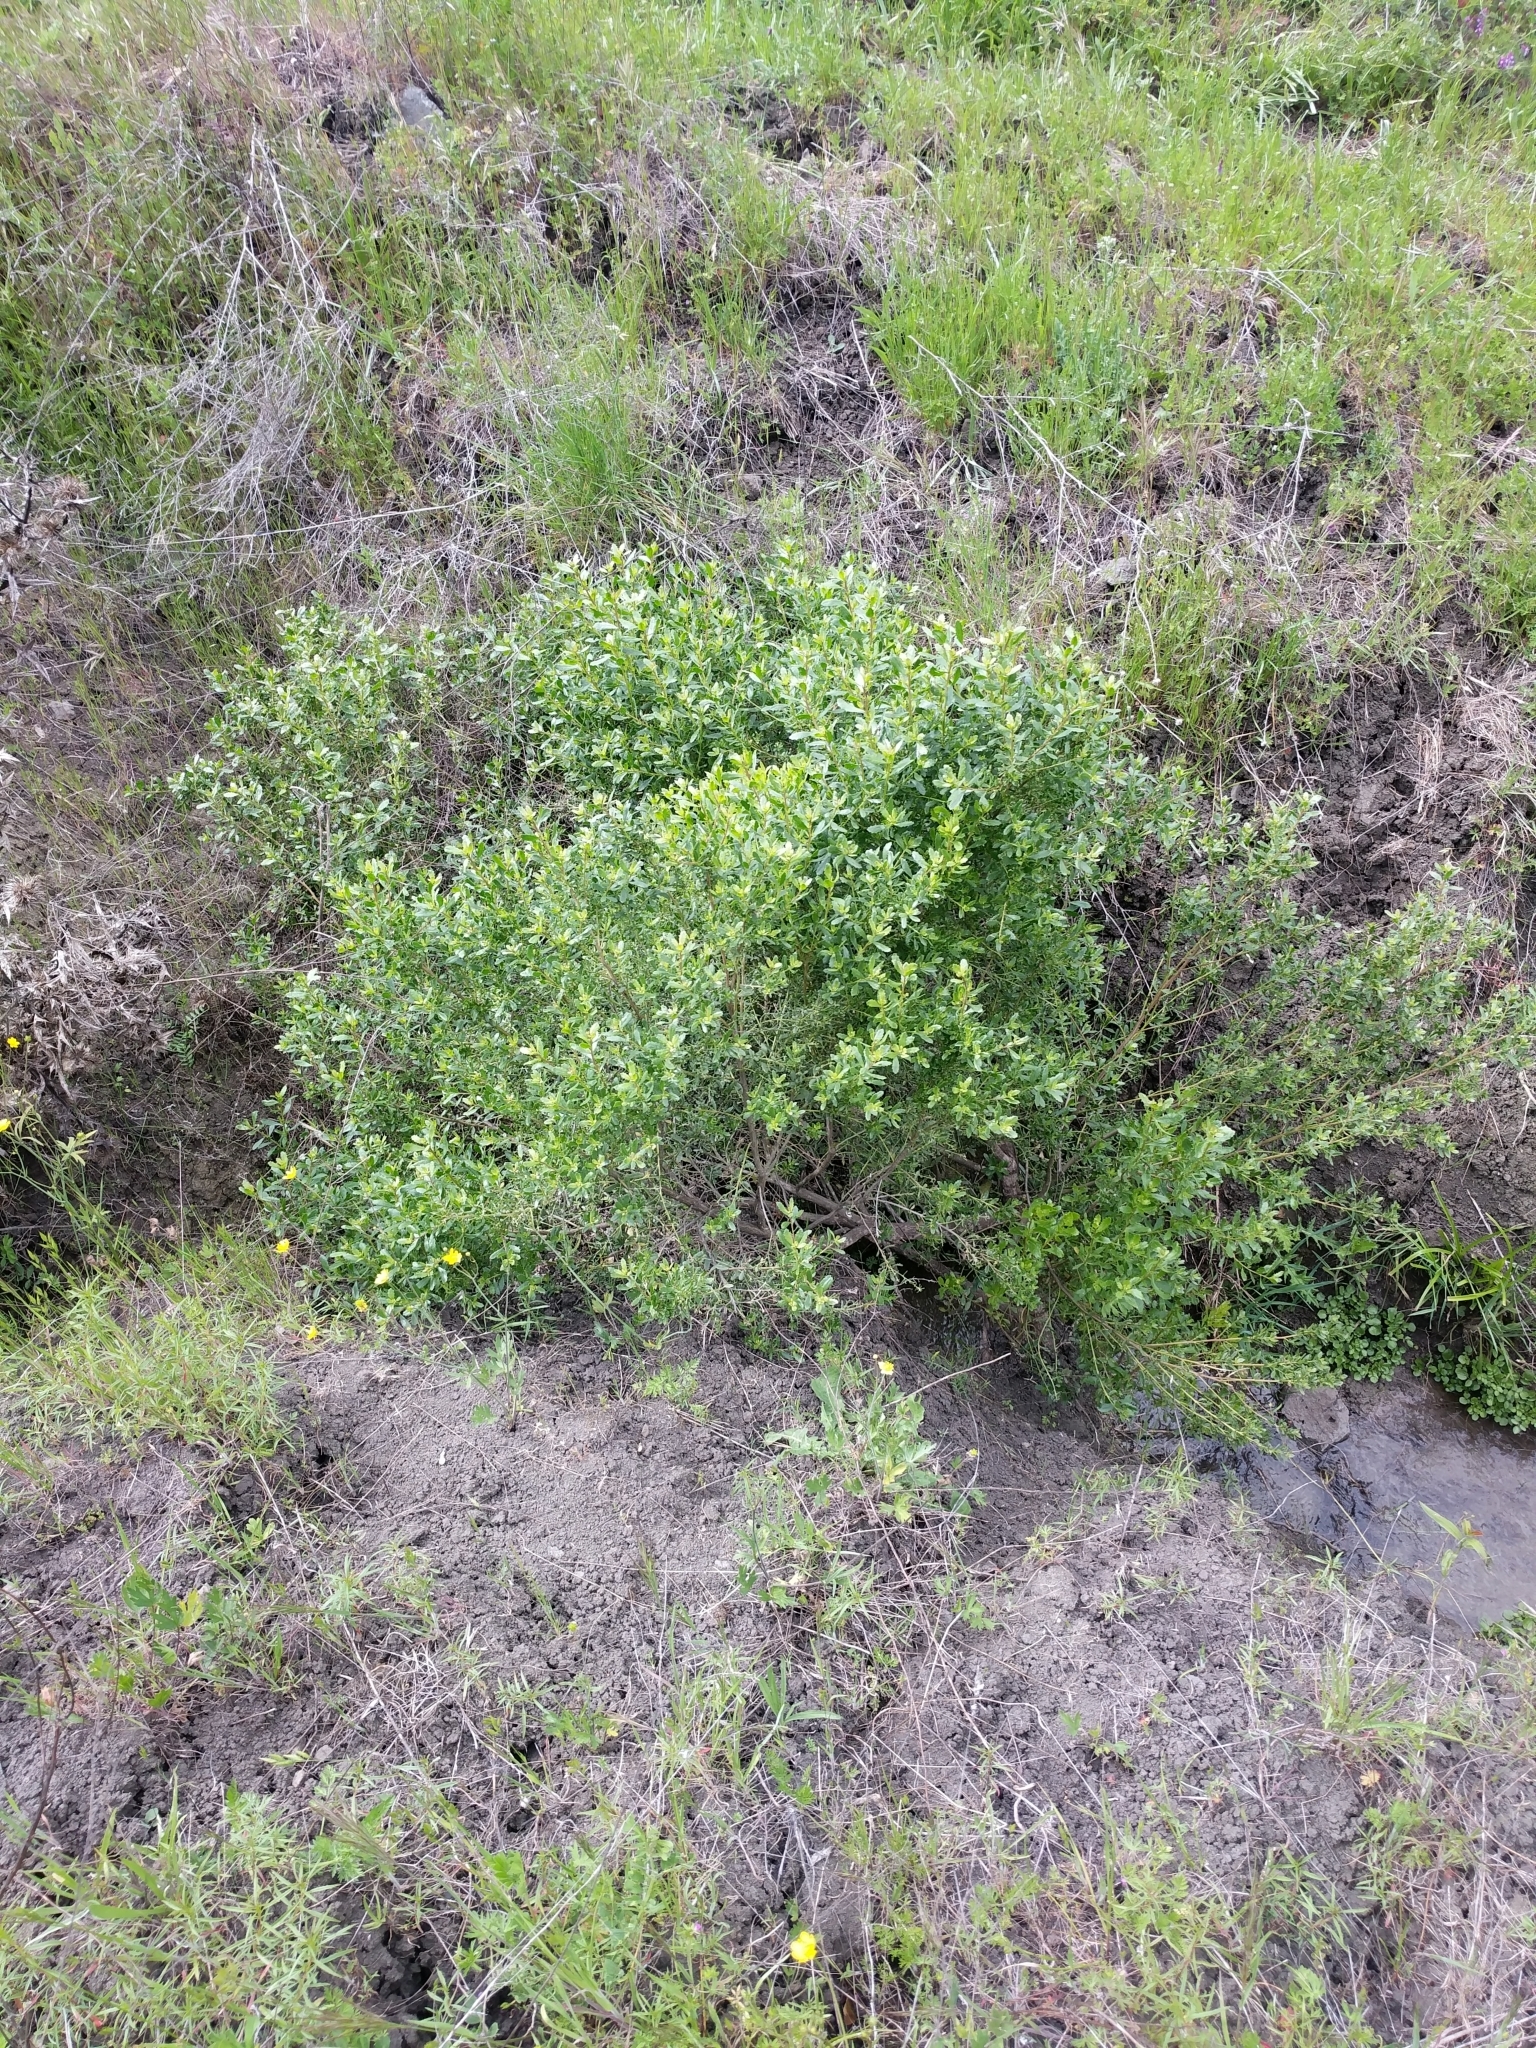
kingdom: Plantae
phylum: Tracheophyta
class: Magnoliopsida
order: Asterales
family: Asteraceae
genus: Baccharis
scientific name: Baccharis pilularis
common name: Coyotebrush
